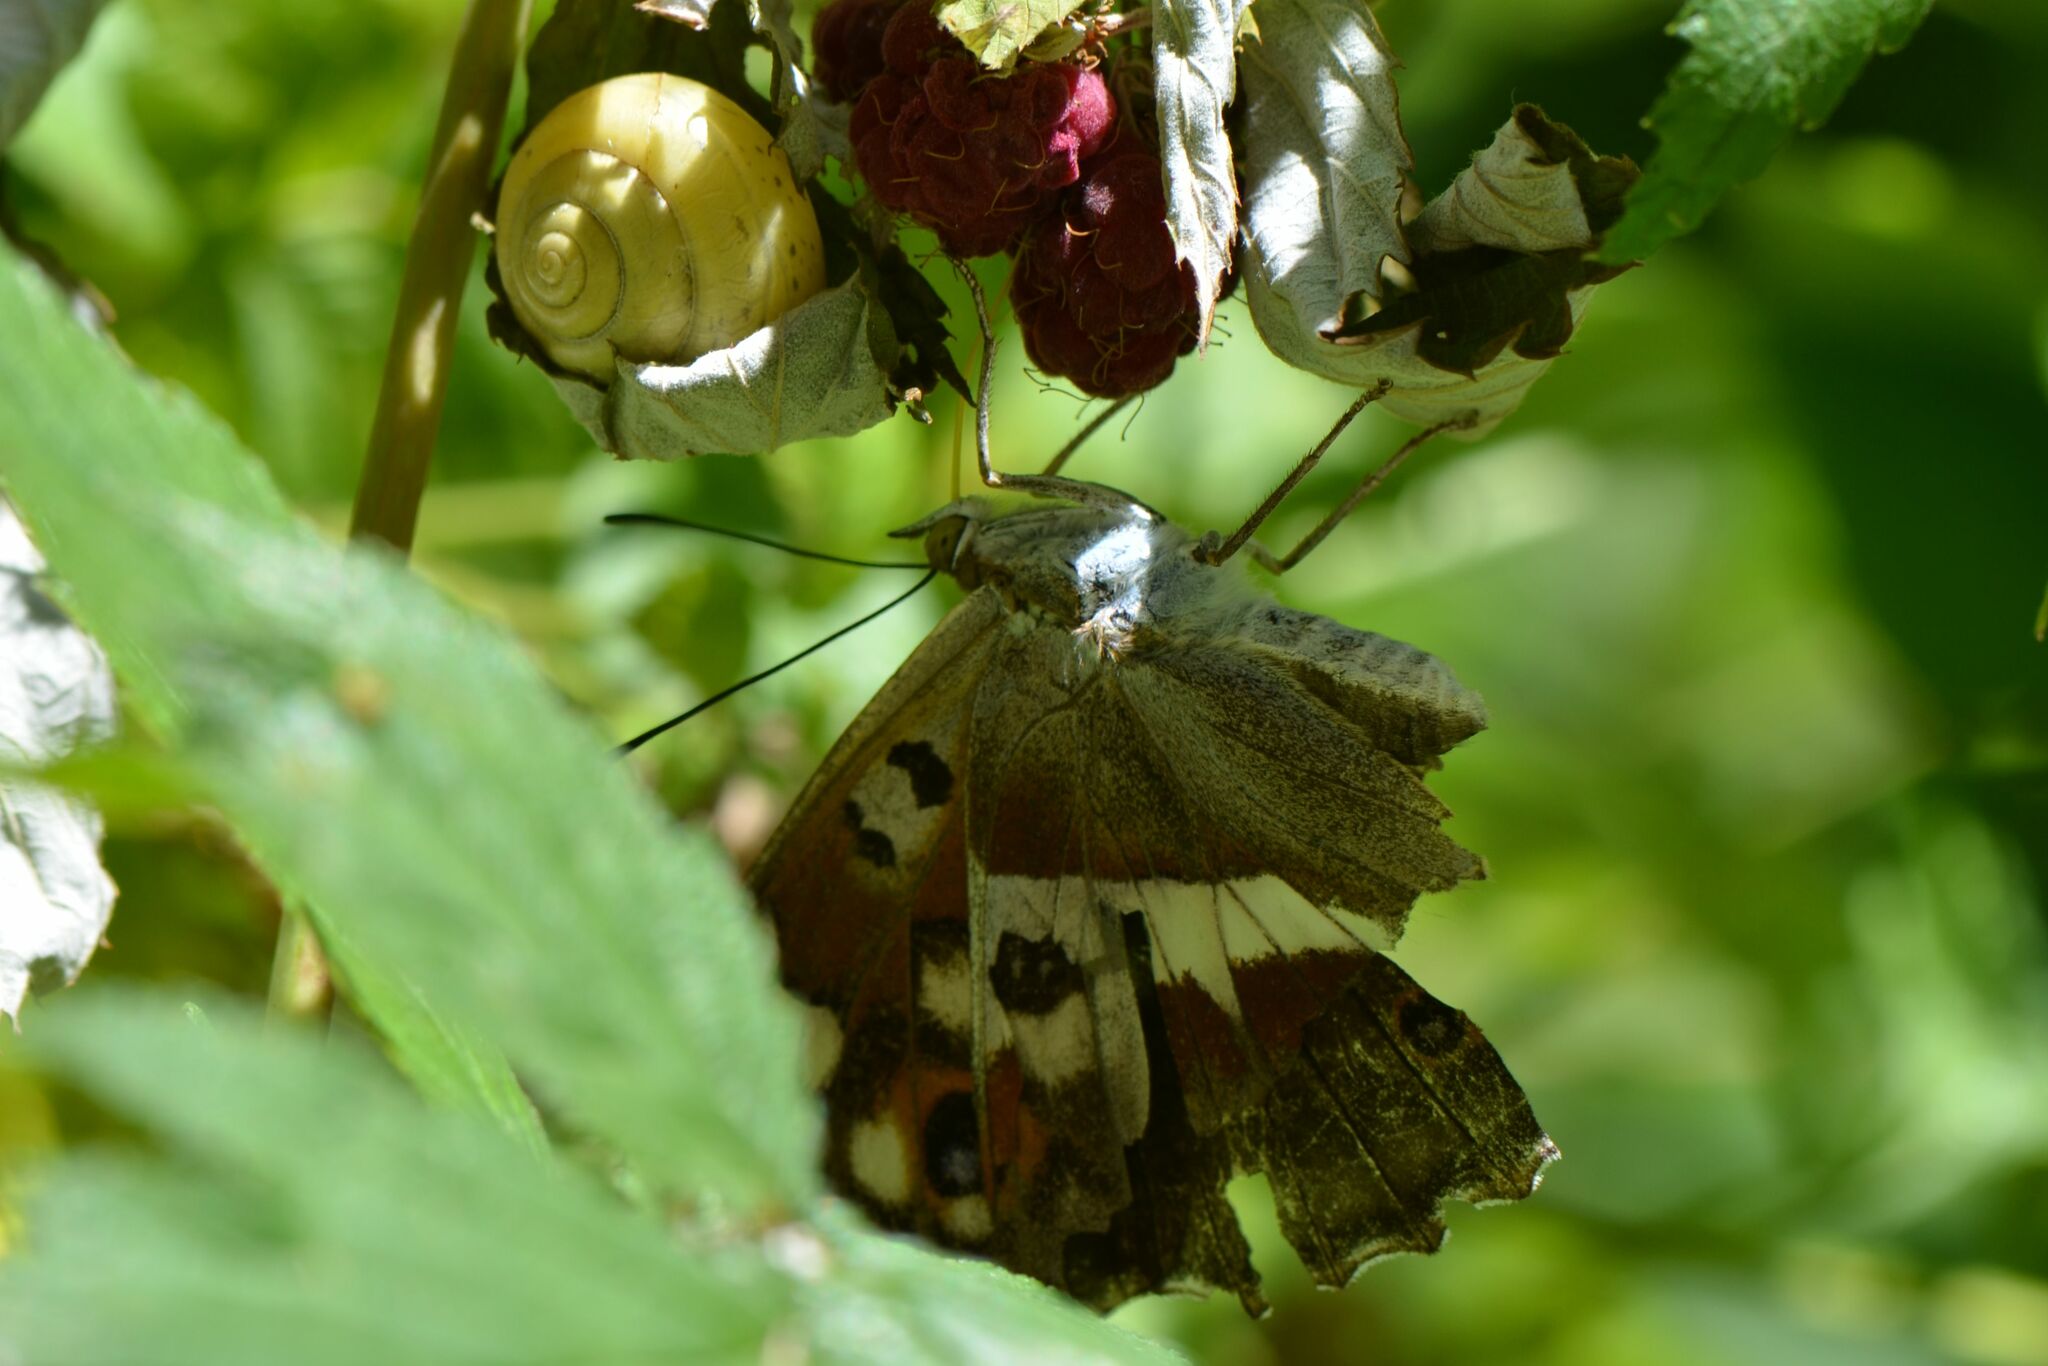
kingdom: Animalia
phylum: Arthropoda
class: Insecta
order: Lepidoptera
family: Nymphalidae
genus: Apatura
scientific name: Apatura iris
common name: Purple emperor
